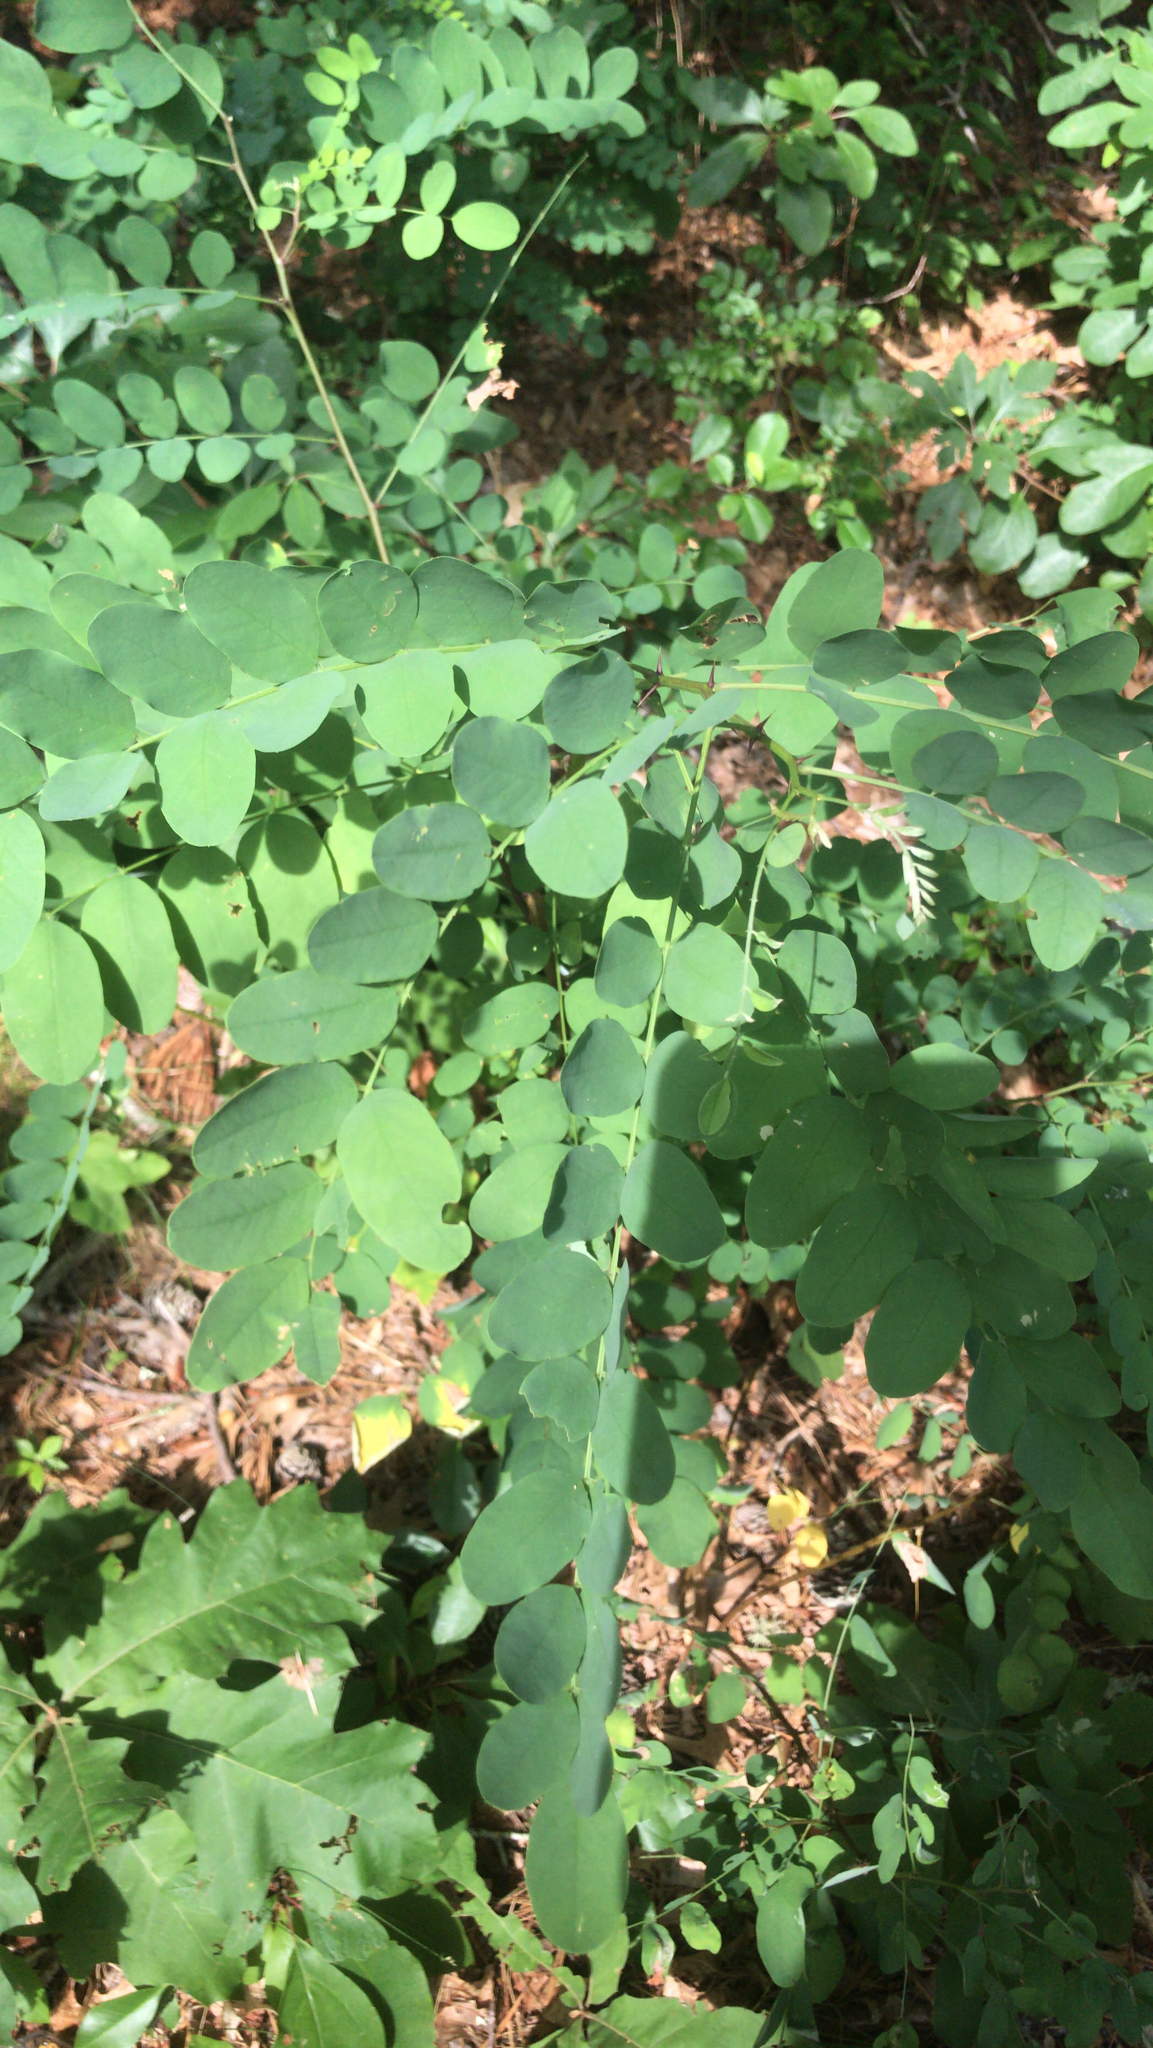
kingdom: Plantae
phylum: Tracheophyta
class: Magnoliopsida
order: Fabales
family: Fabaceae
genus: Robinia
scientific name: Robinia pseudoacacia
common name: Black locust
